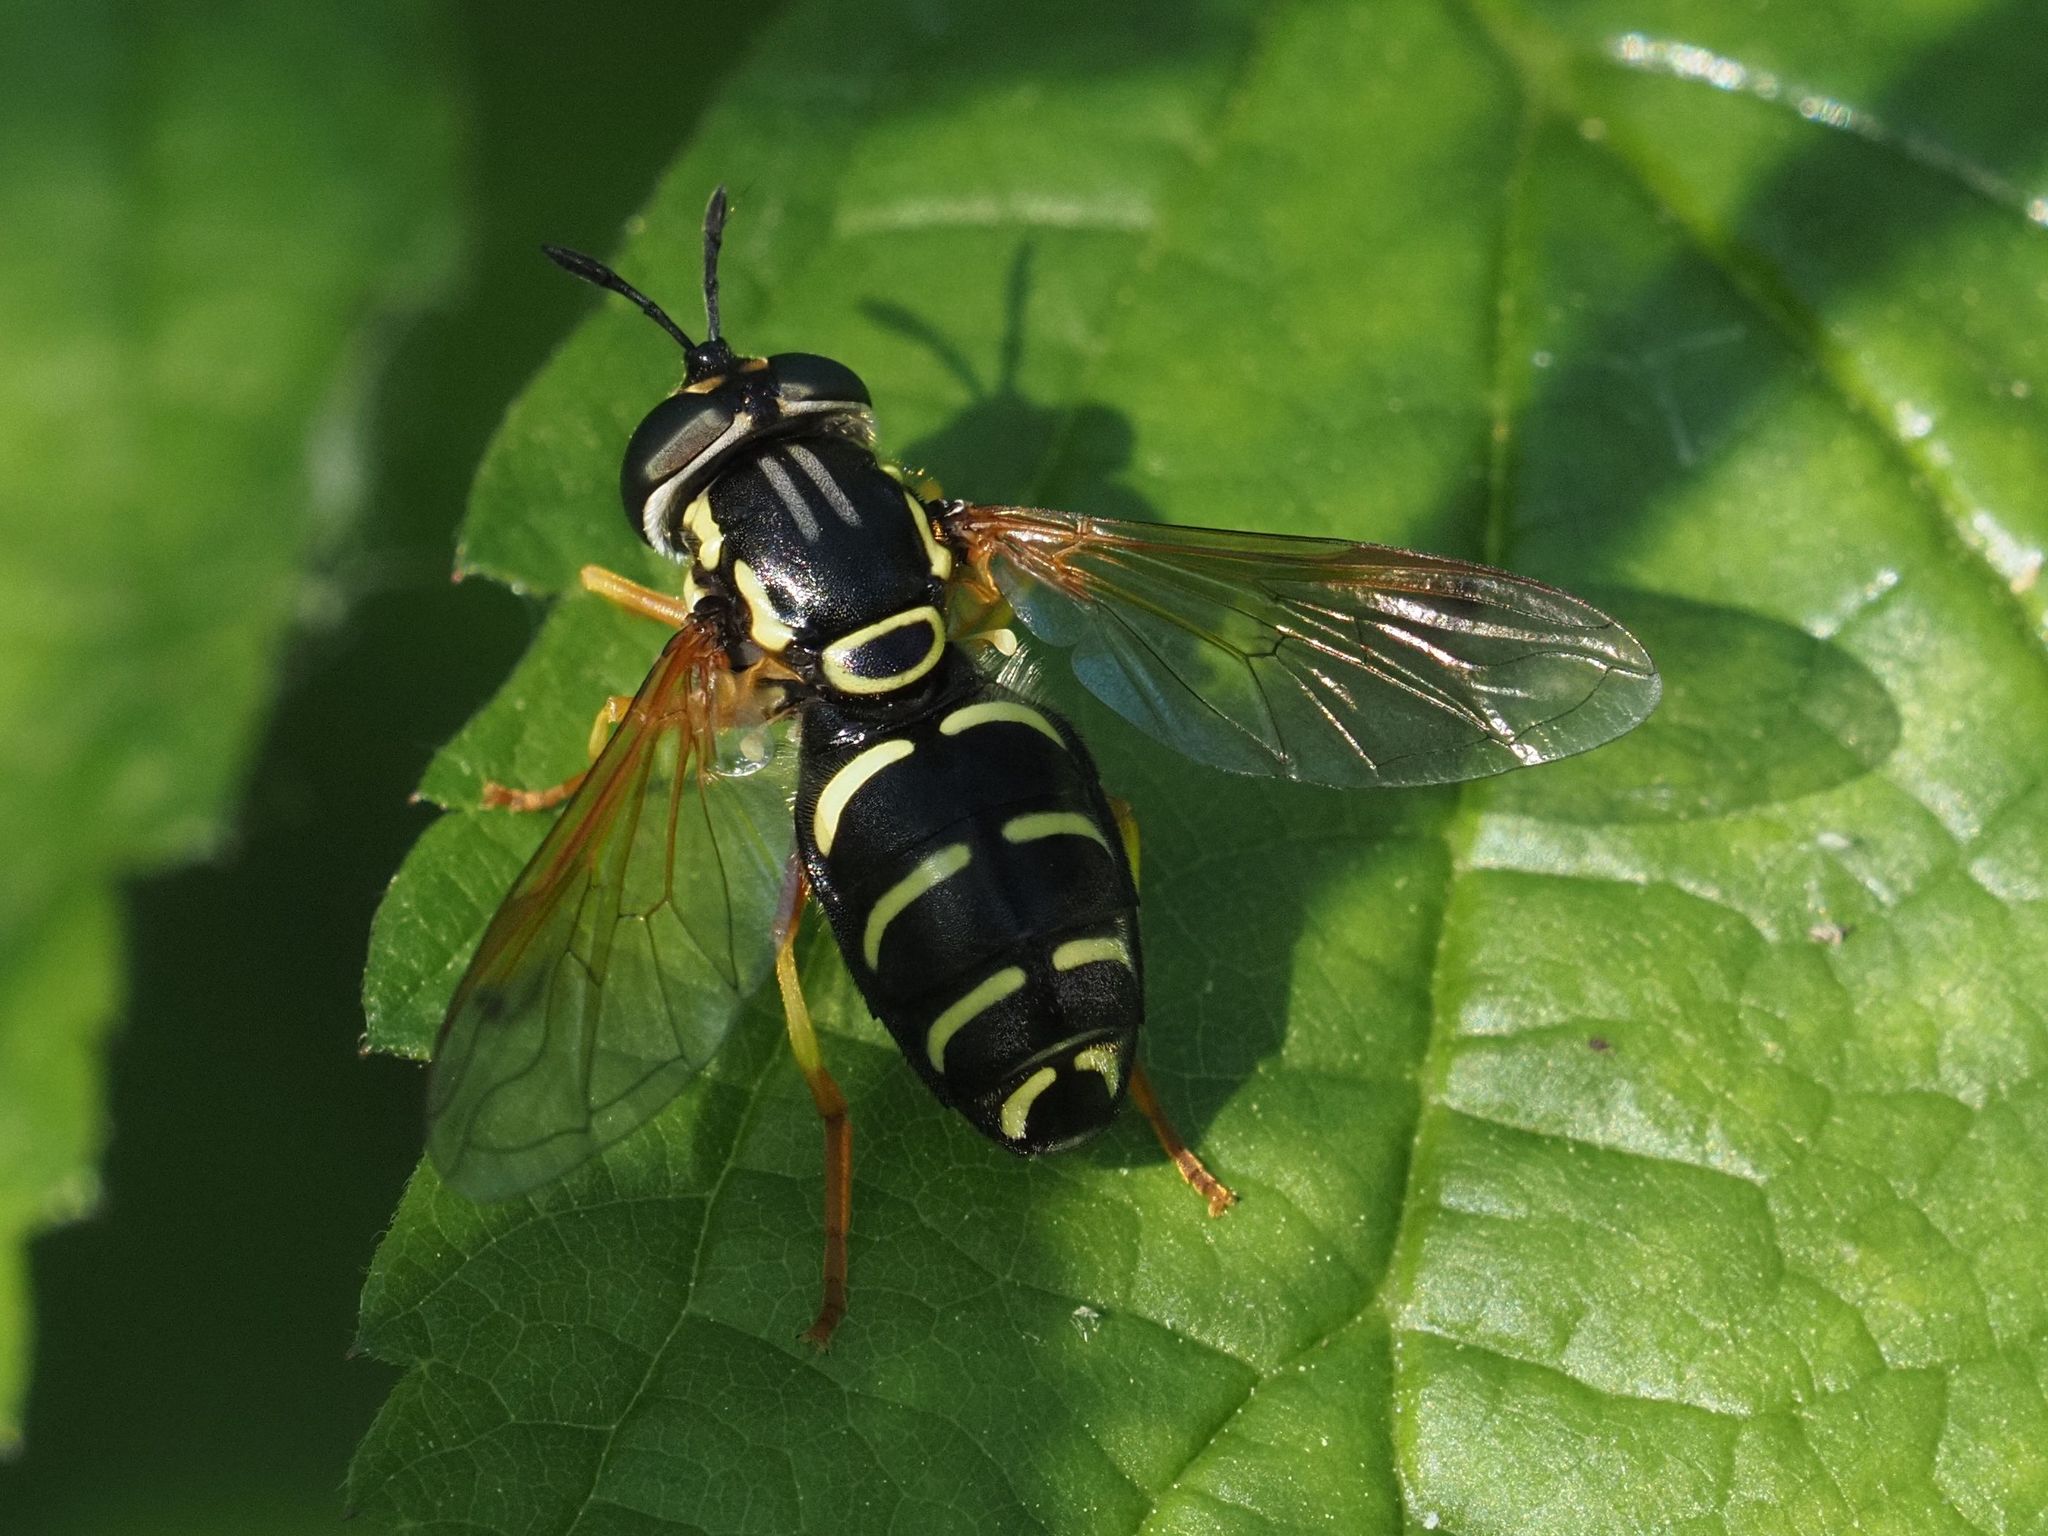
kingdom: Animalia
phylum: Arthropoda
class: Insecta
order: Diptera
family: Syrphidae
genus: Chrysotoxum
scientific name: Chrysotoxum festivum
